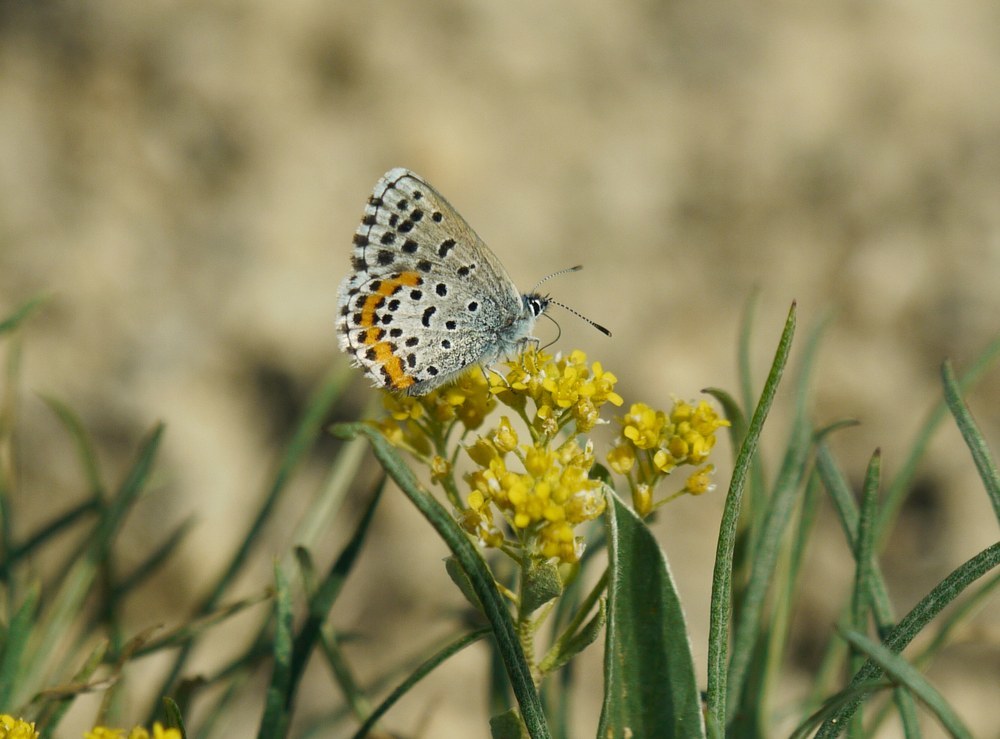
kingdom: Animalia
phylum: Arthropoda
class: Insecta
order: Lepidoptera
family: Lycaenidae
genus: Pseudophilotes
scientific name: Pseudophilotes bavius
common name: Bavius blue
